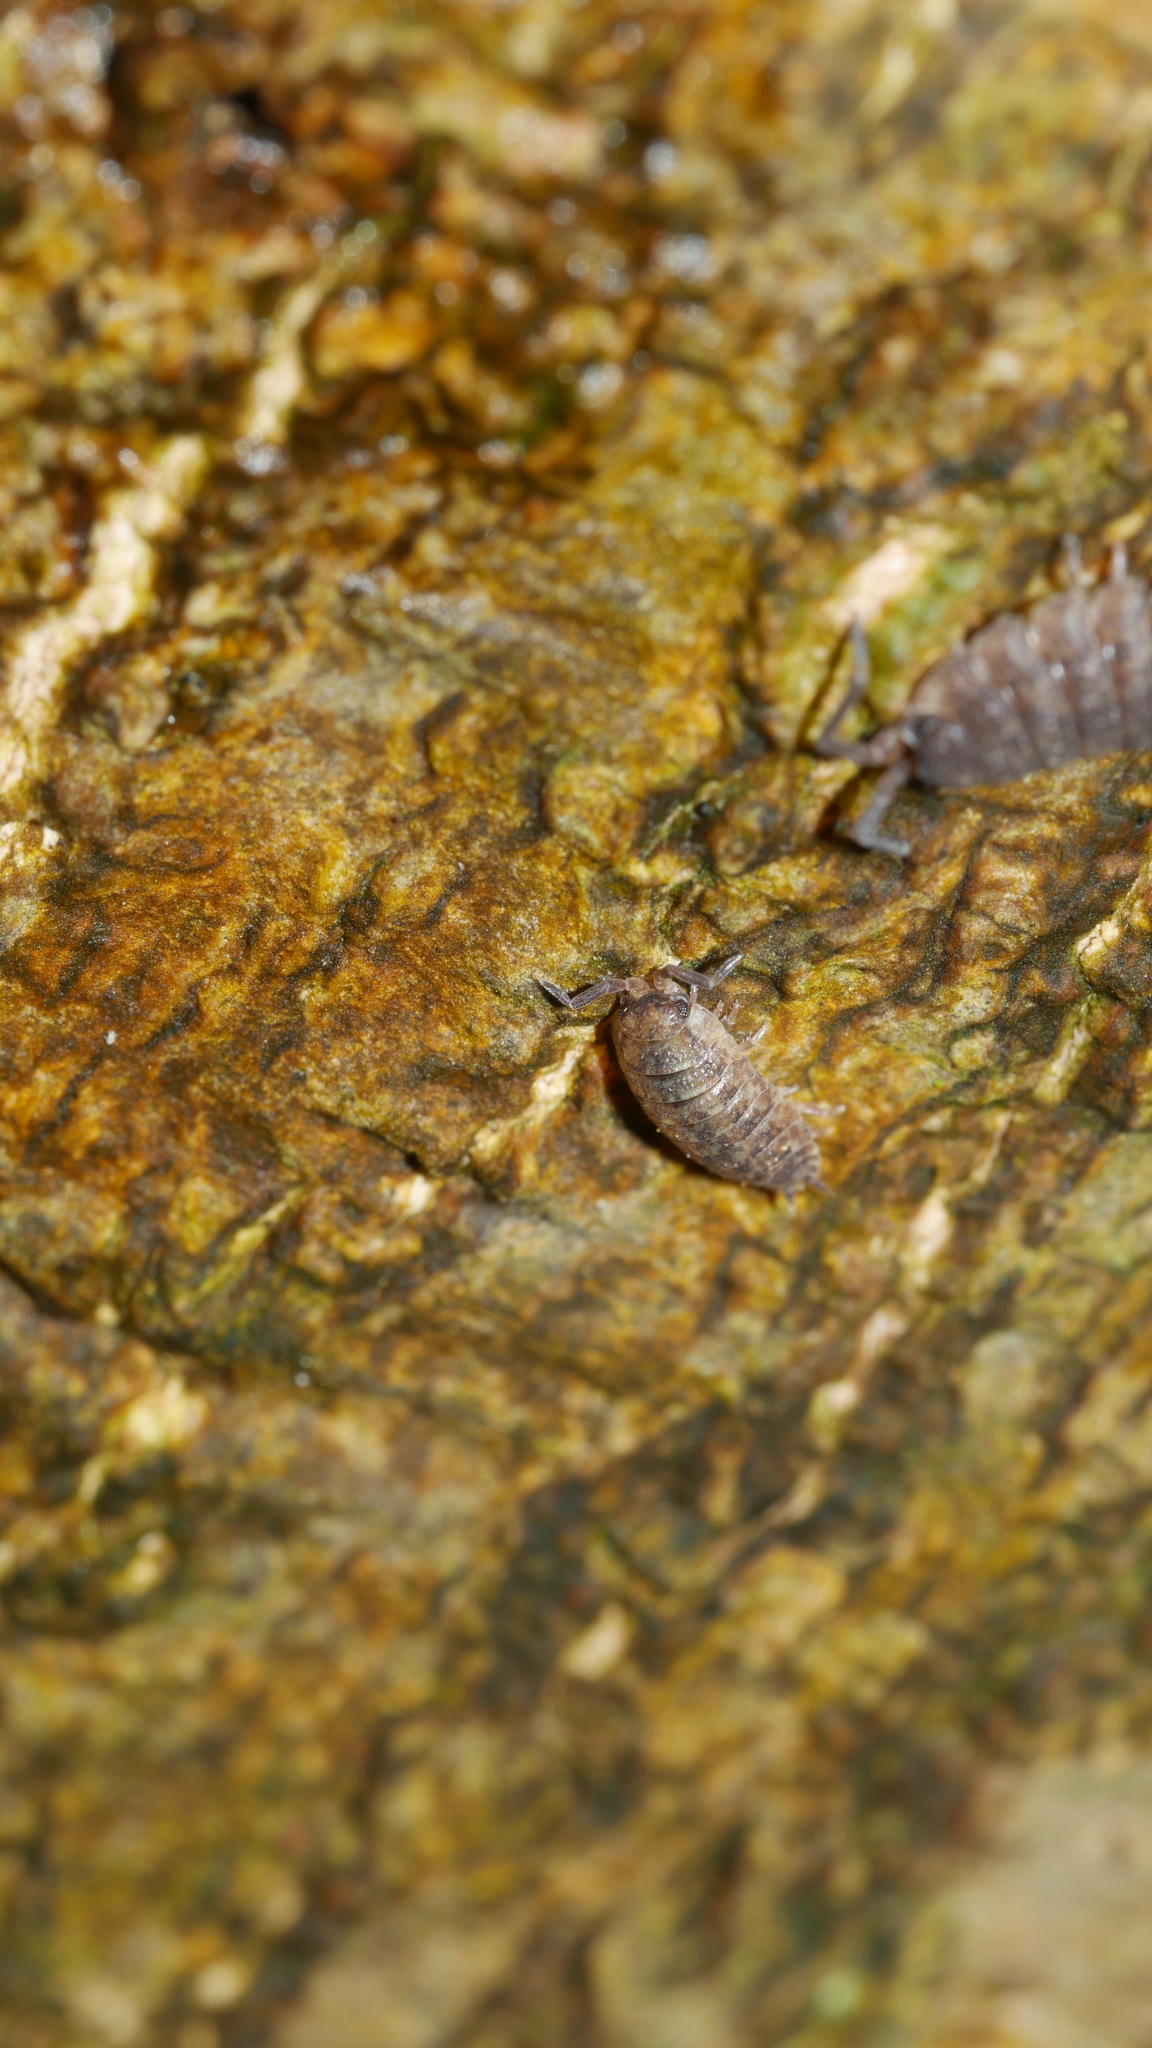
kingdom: Animalia
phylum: Arthropoda
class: Malacostraca
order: Isopoda
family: Porcellionidae
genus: Porcellio
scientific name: Porcellio scaber
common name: Common rough woodlouse
